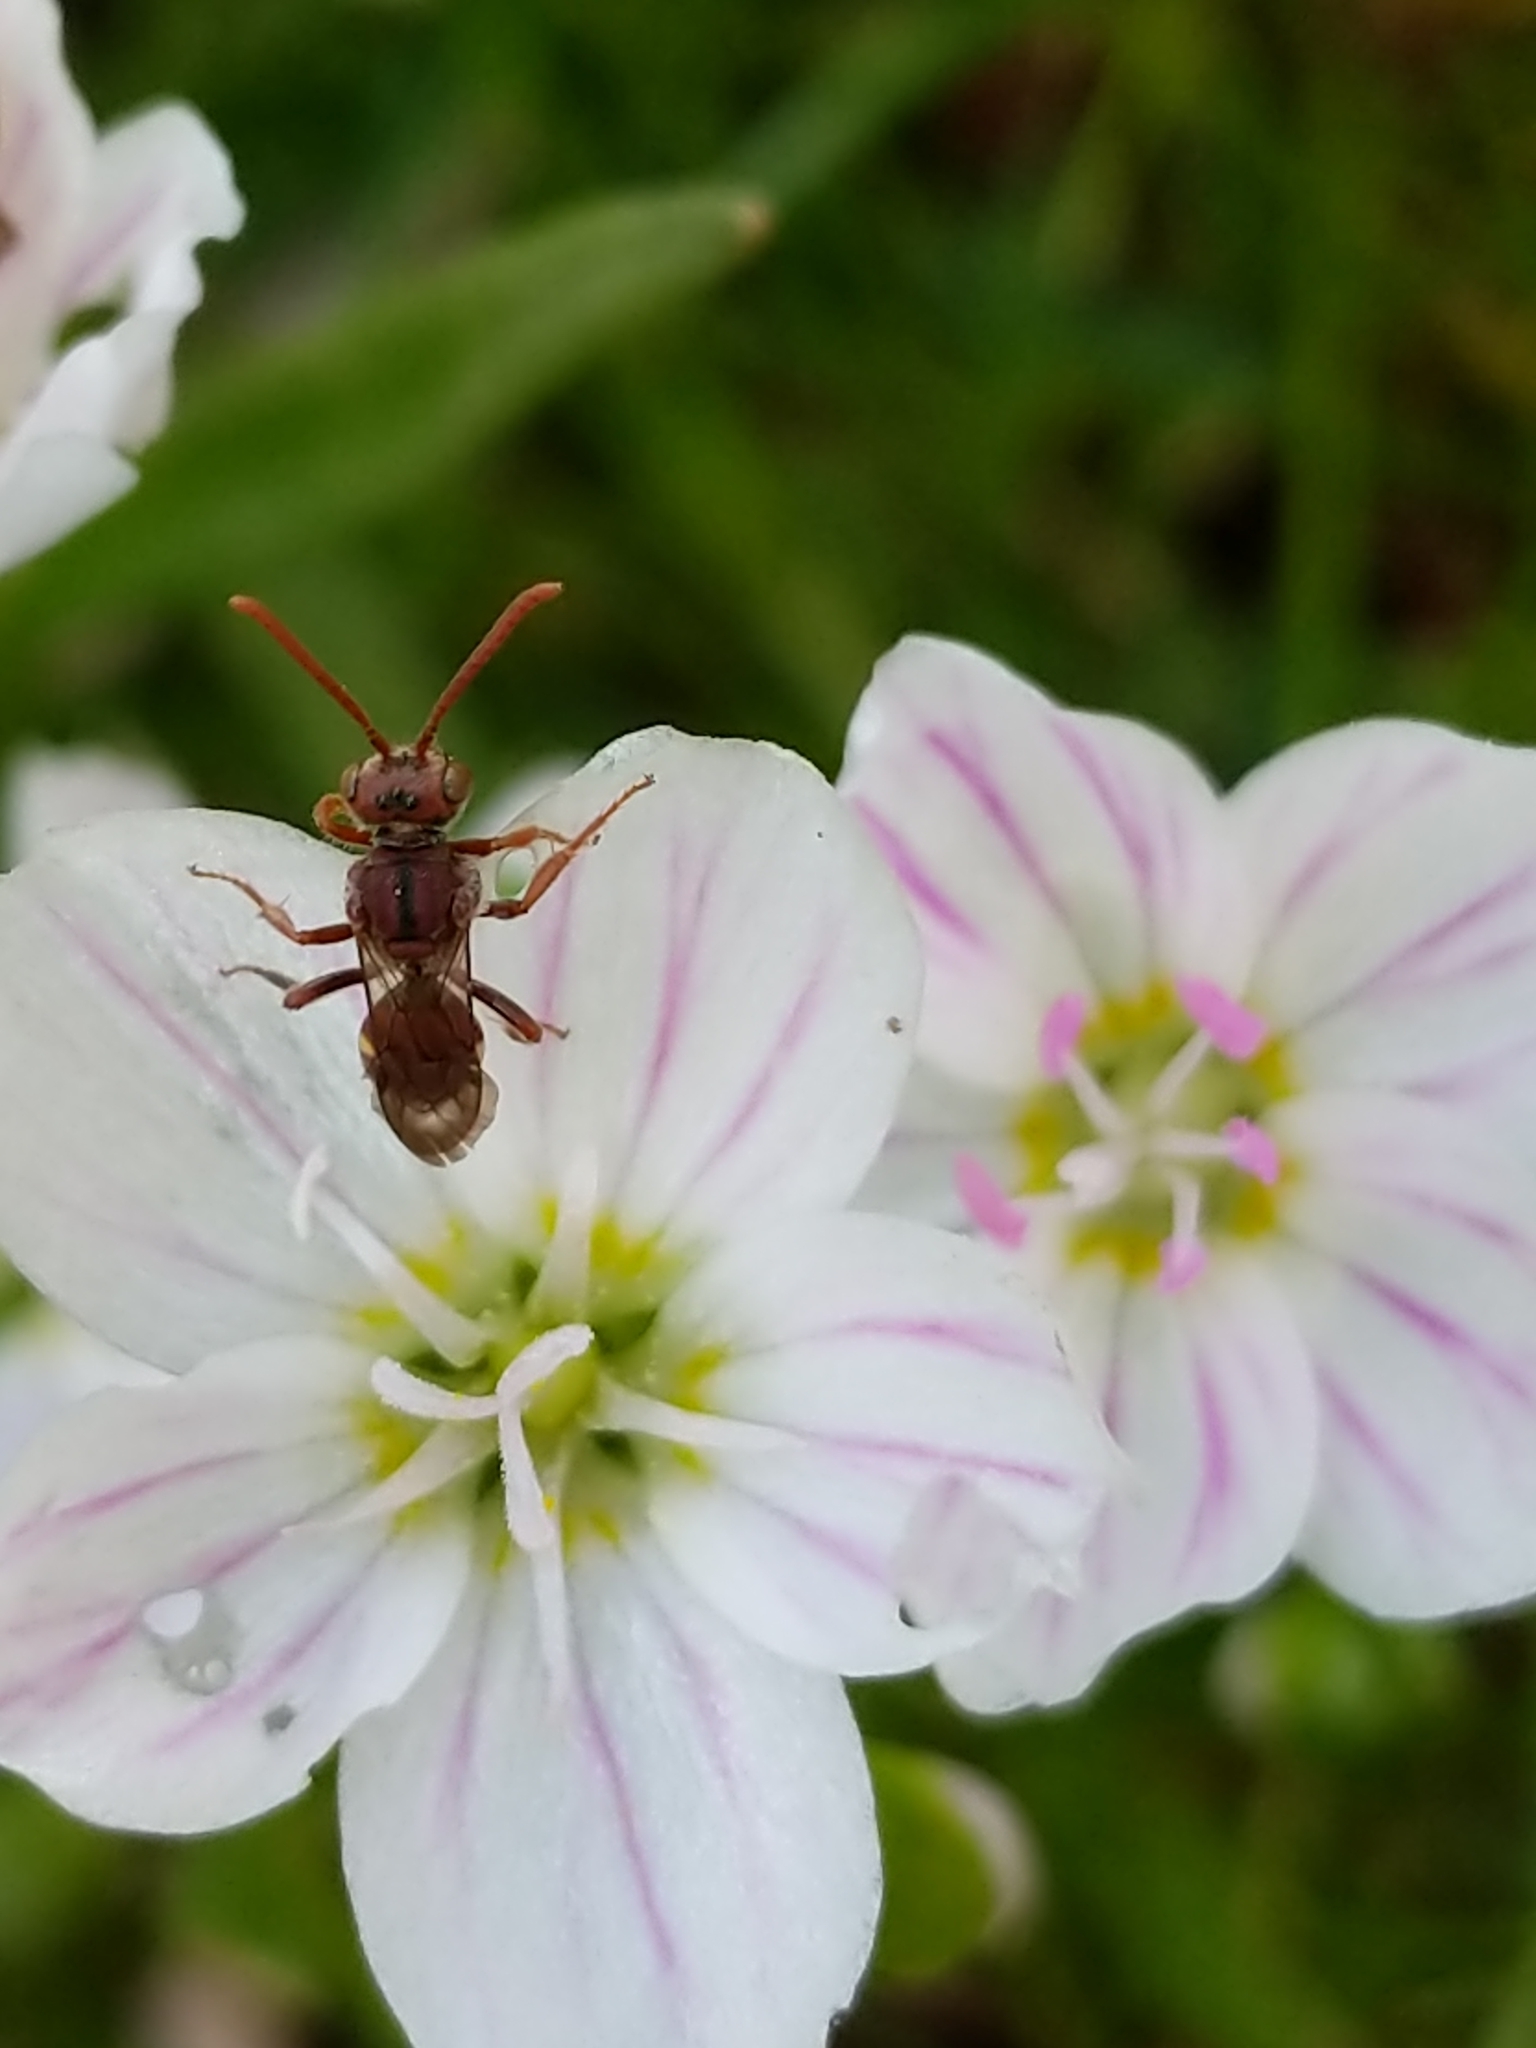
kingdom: Animalia
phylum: Arthropoda
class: Insecta
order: Hymenoptera
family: Apidae
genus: Nomada
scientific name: Nomada
